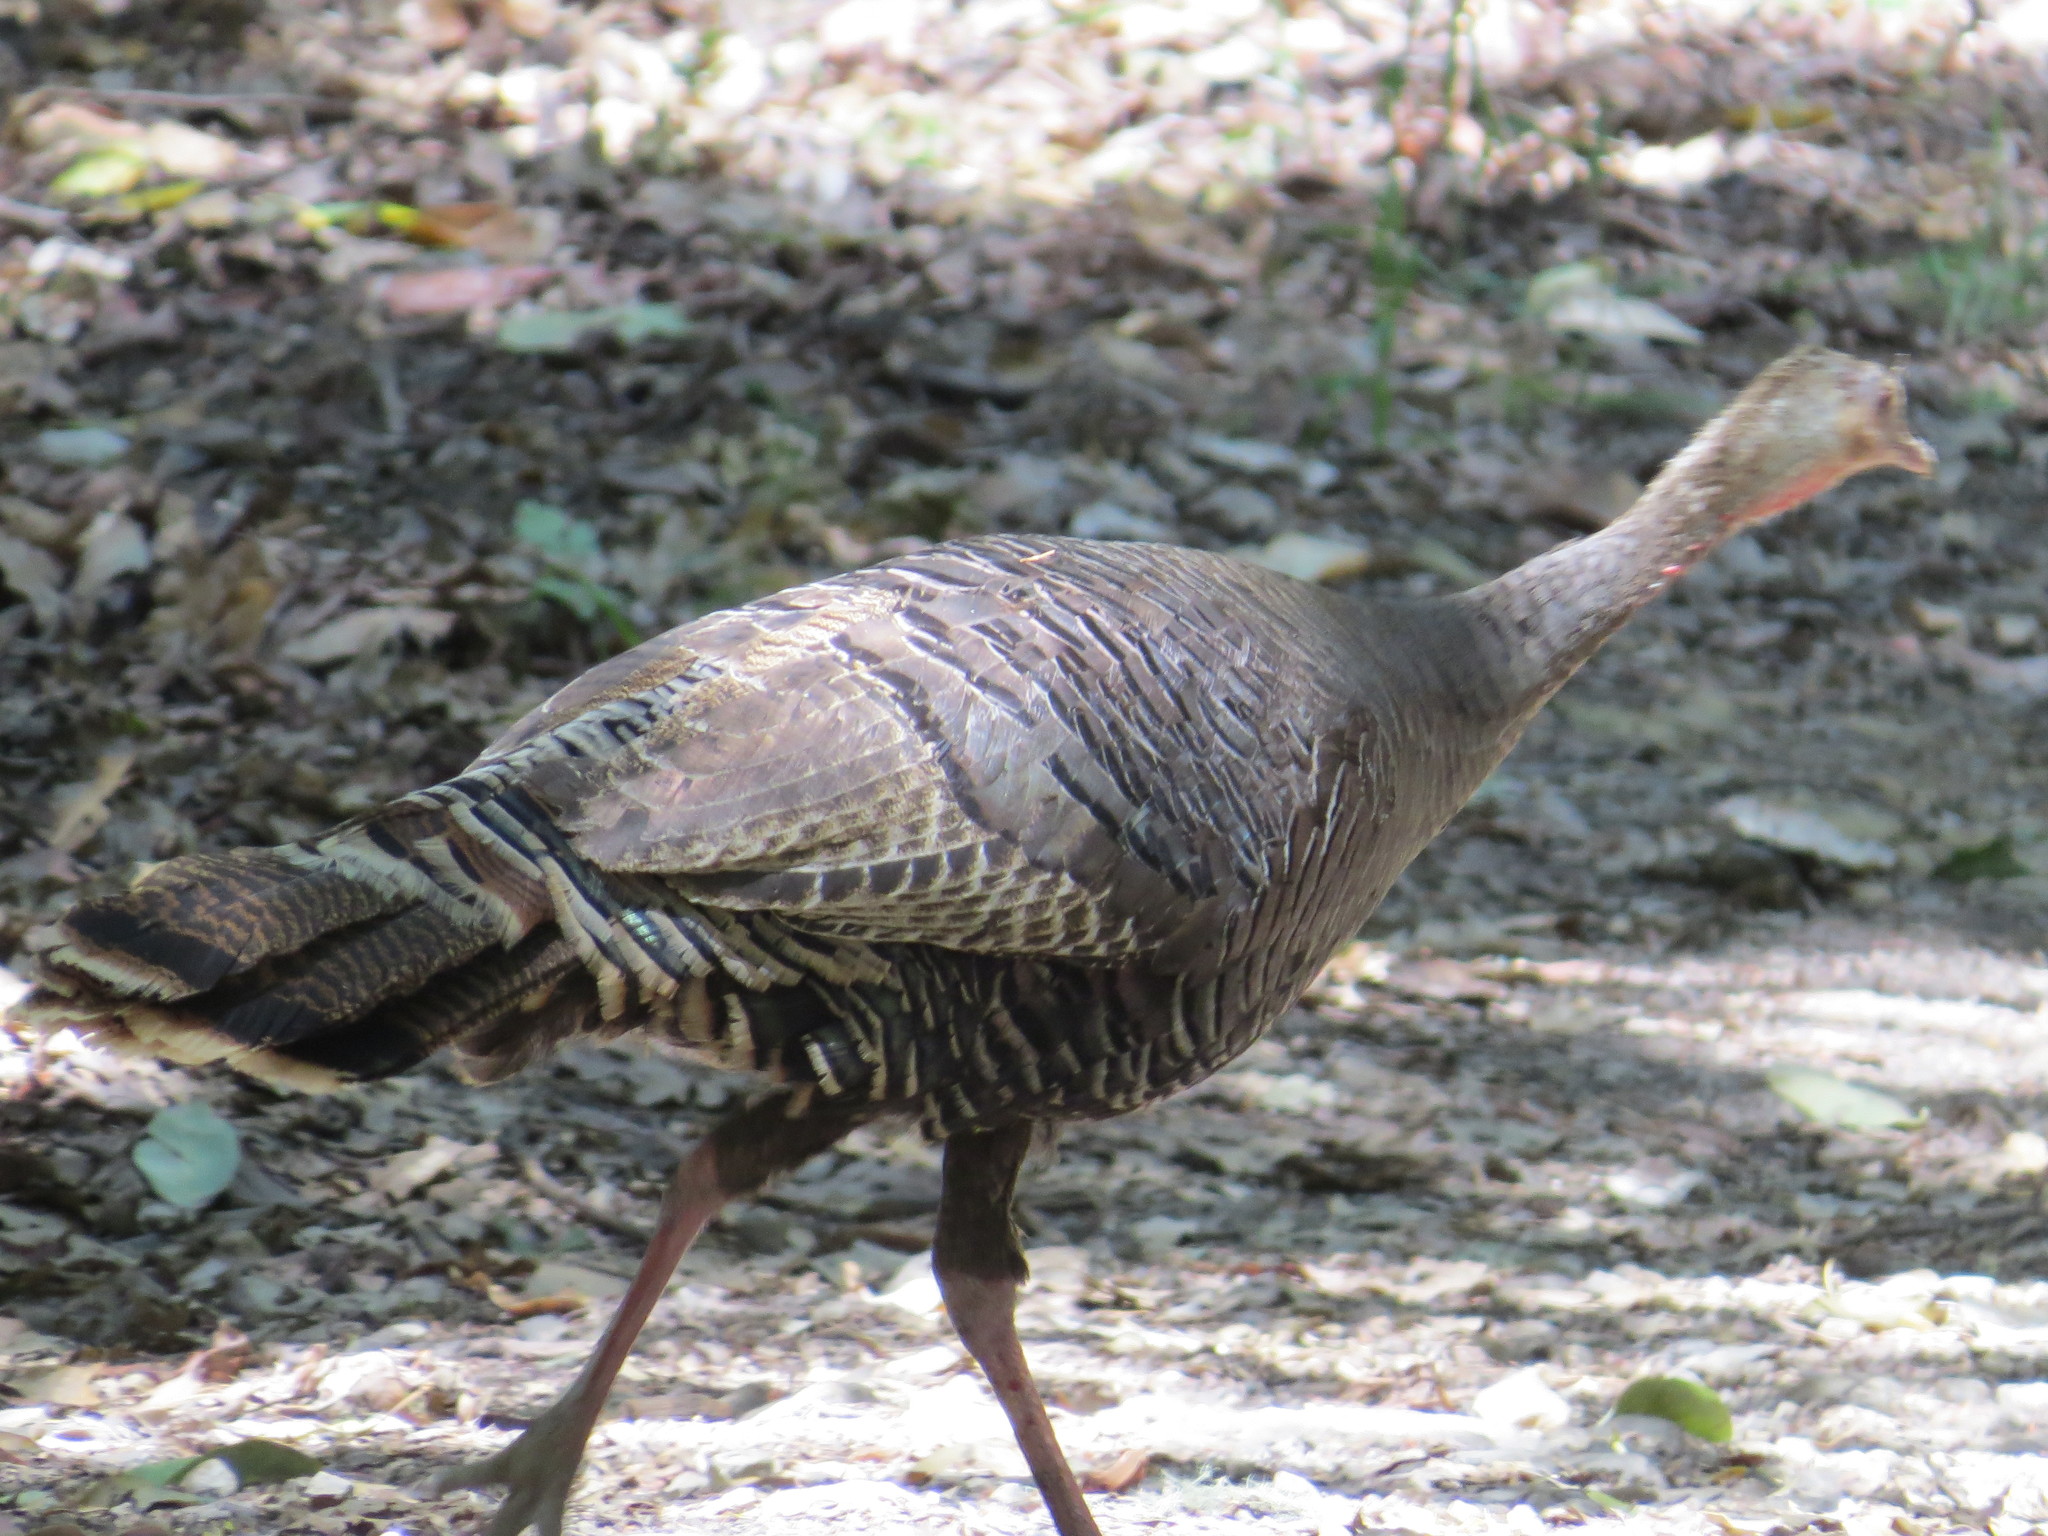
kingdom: Animalia
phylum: Chordata
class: Aves
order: Galliformes
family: Phasianidae
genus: Meleagris
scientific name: Meleagris gallopavo
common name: Wild turkey
